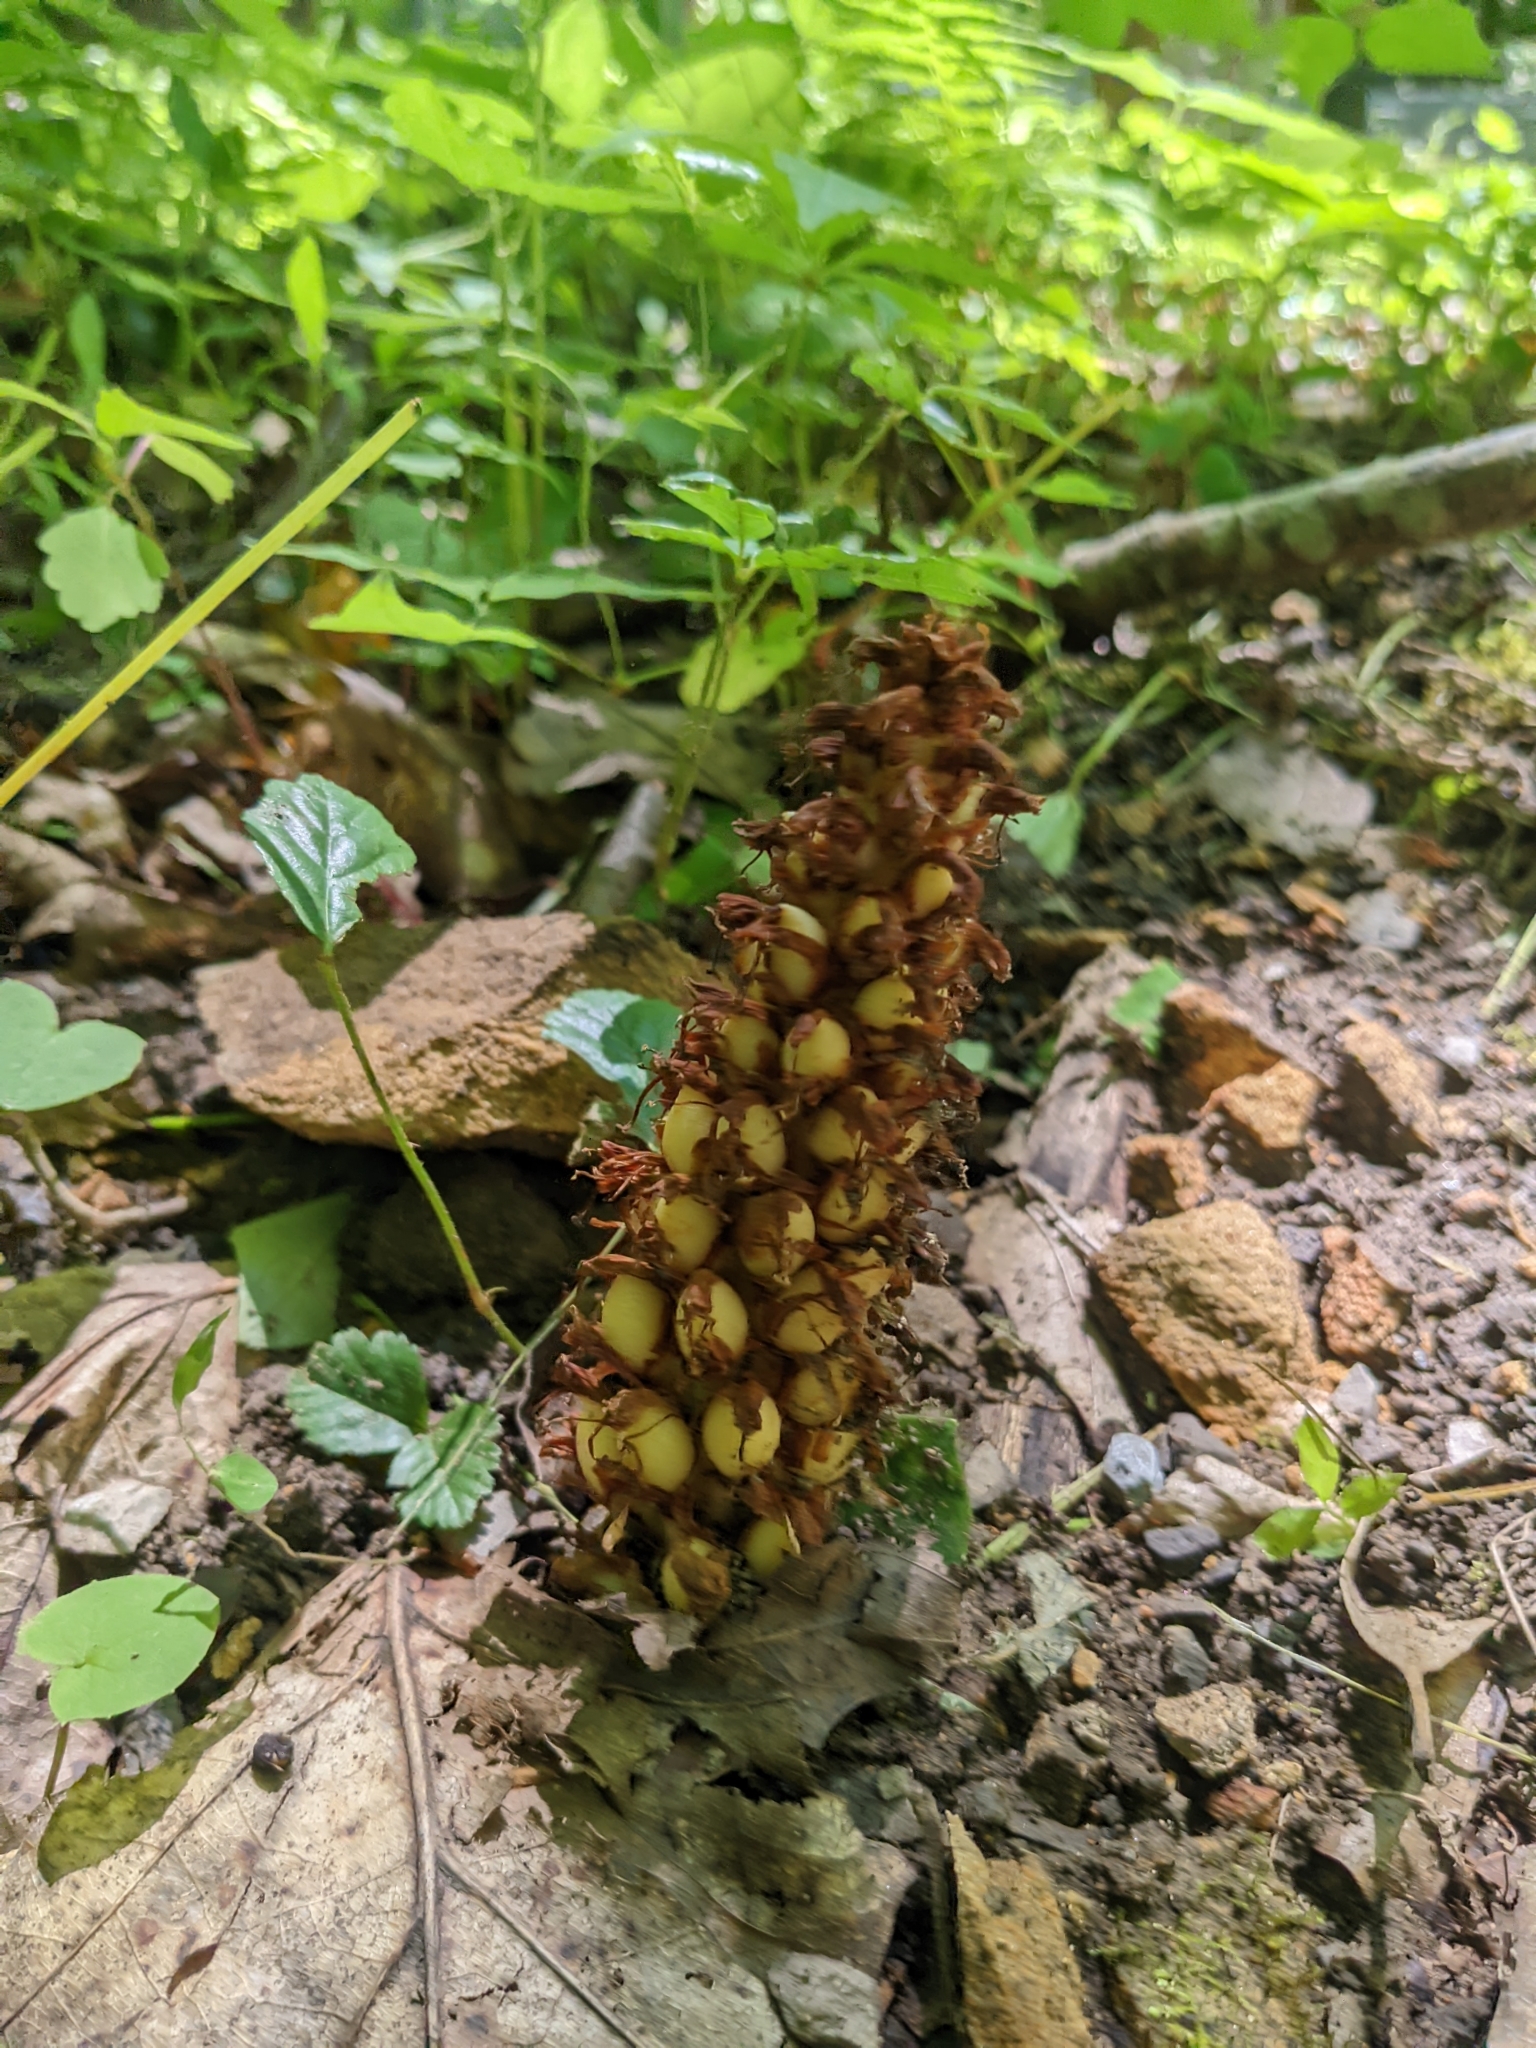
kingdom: Plantae
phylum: Tracheophyta
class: Magnoliopsida
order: Lamiales
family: Orobanchaceae
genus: Conopholis
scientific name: Conopholis americana
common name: American cancer-root
